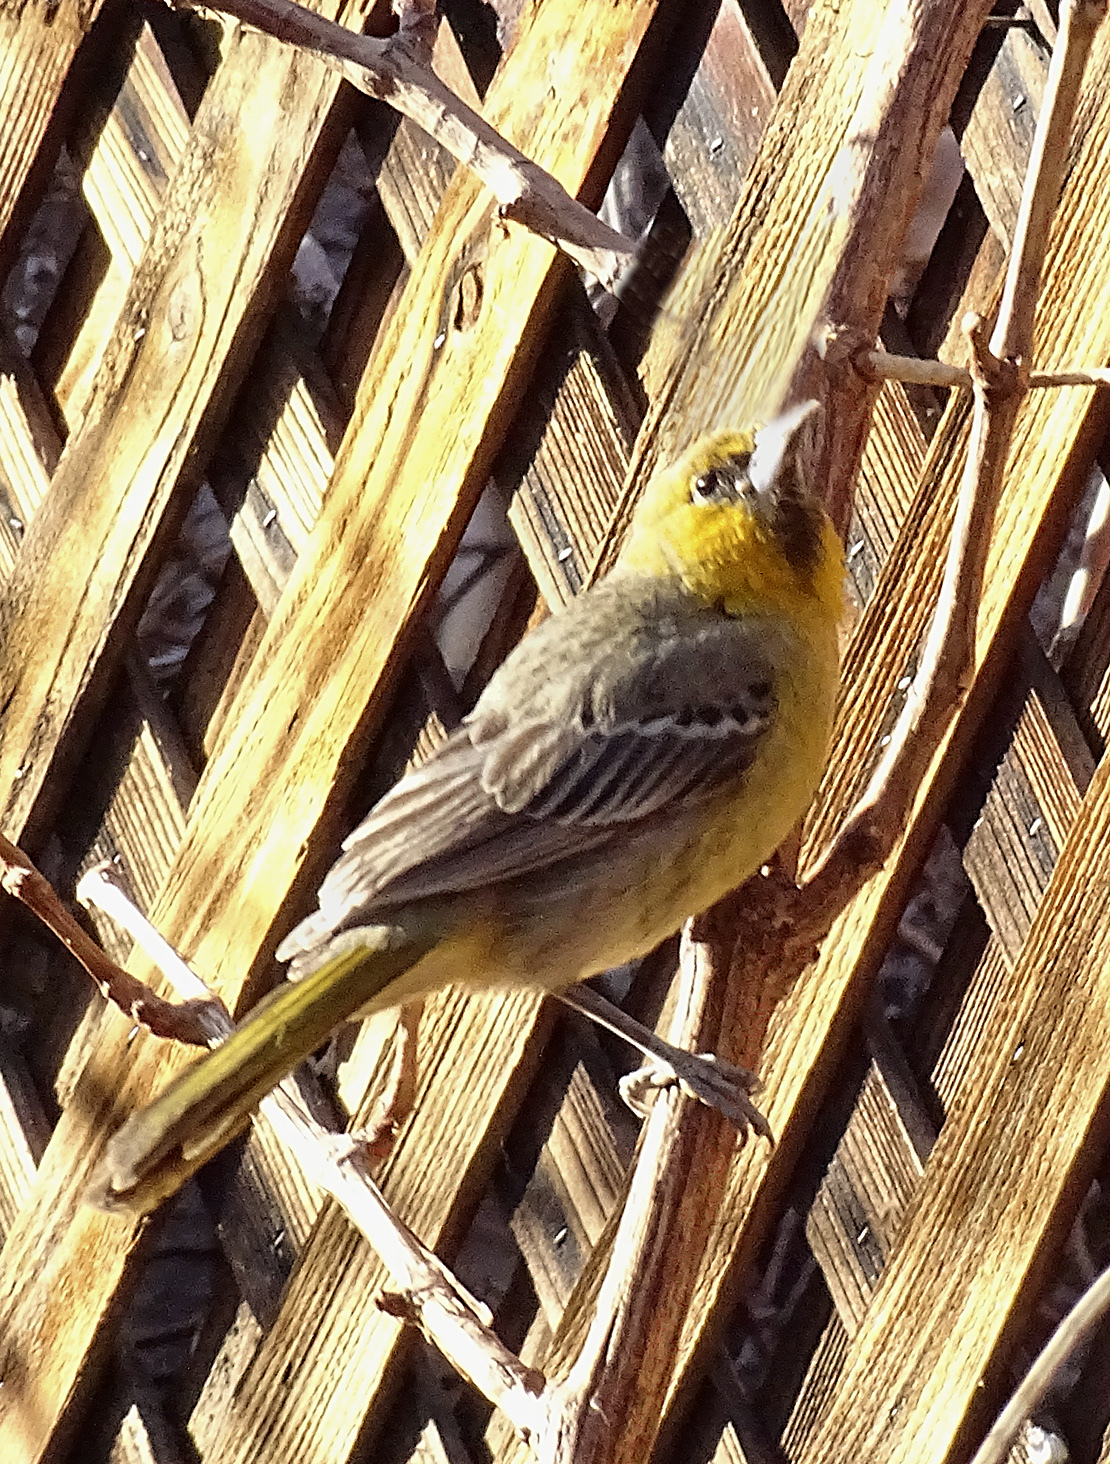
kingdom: Animalia
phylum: Chordata
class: Aves
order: Passeriformes
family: Icteridae
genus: Icterus
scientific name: Icterus pustulatus
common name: Streak-backed oriole
